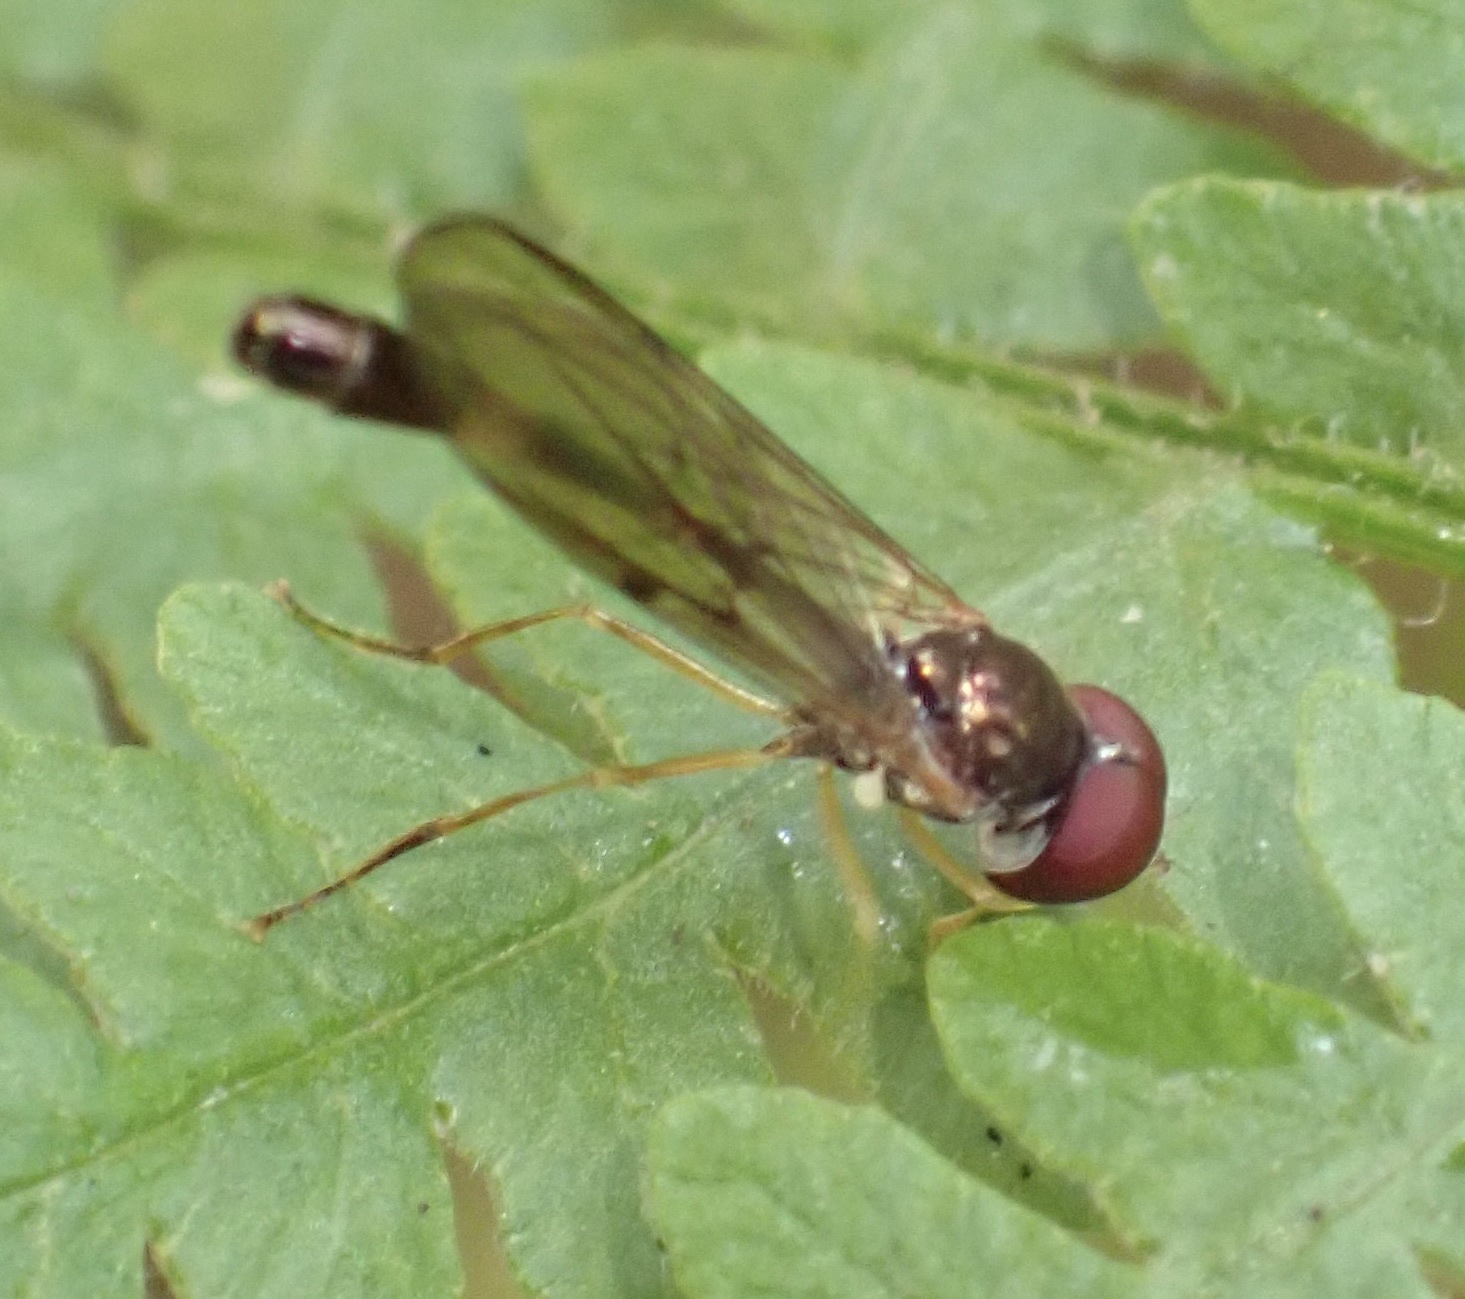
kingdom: Animalia
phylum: Arthropoda
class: Insecta
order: Diptera
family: Syrphidae
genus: Baccha
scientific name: Baccha elongata
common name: Common dainty
